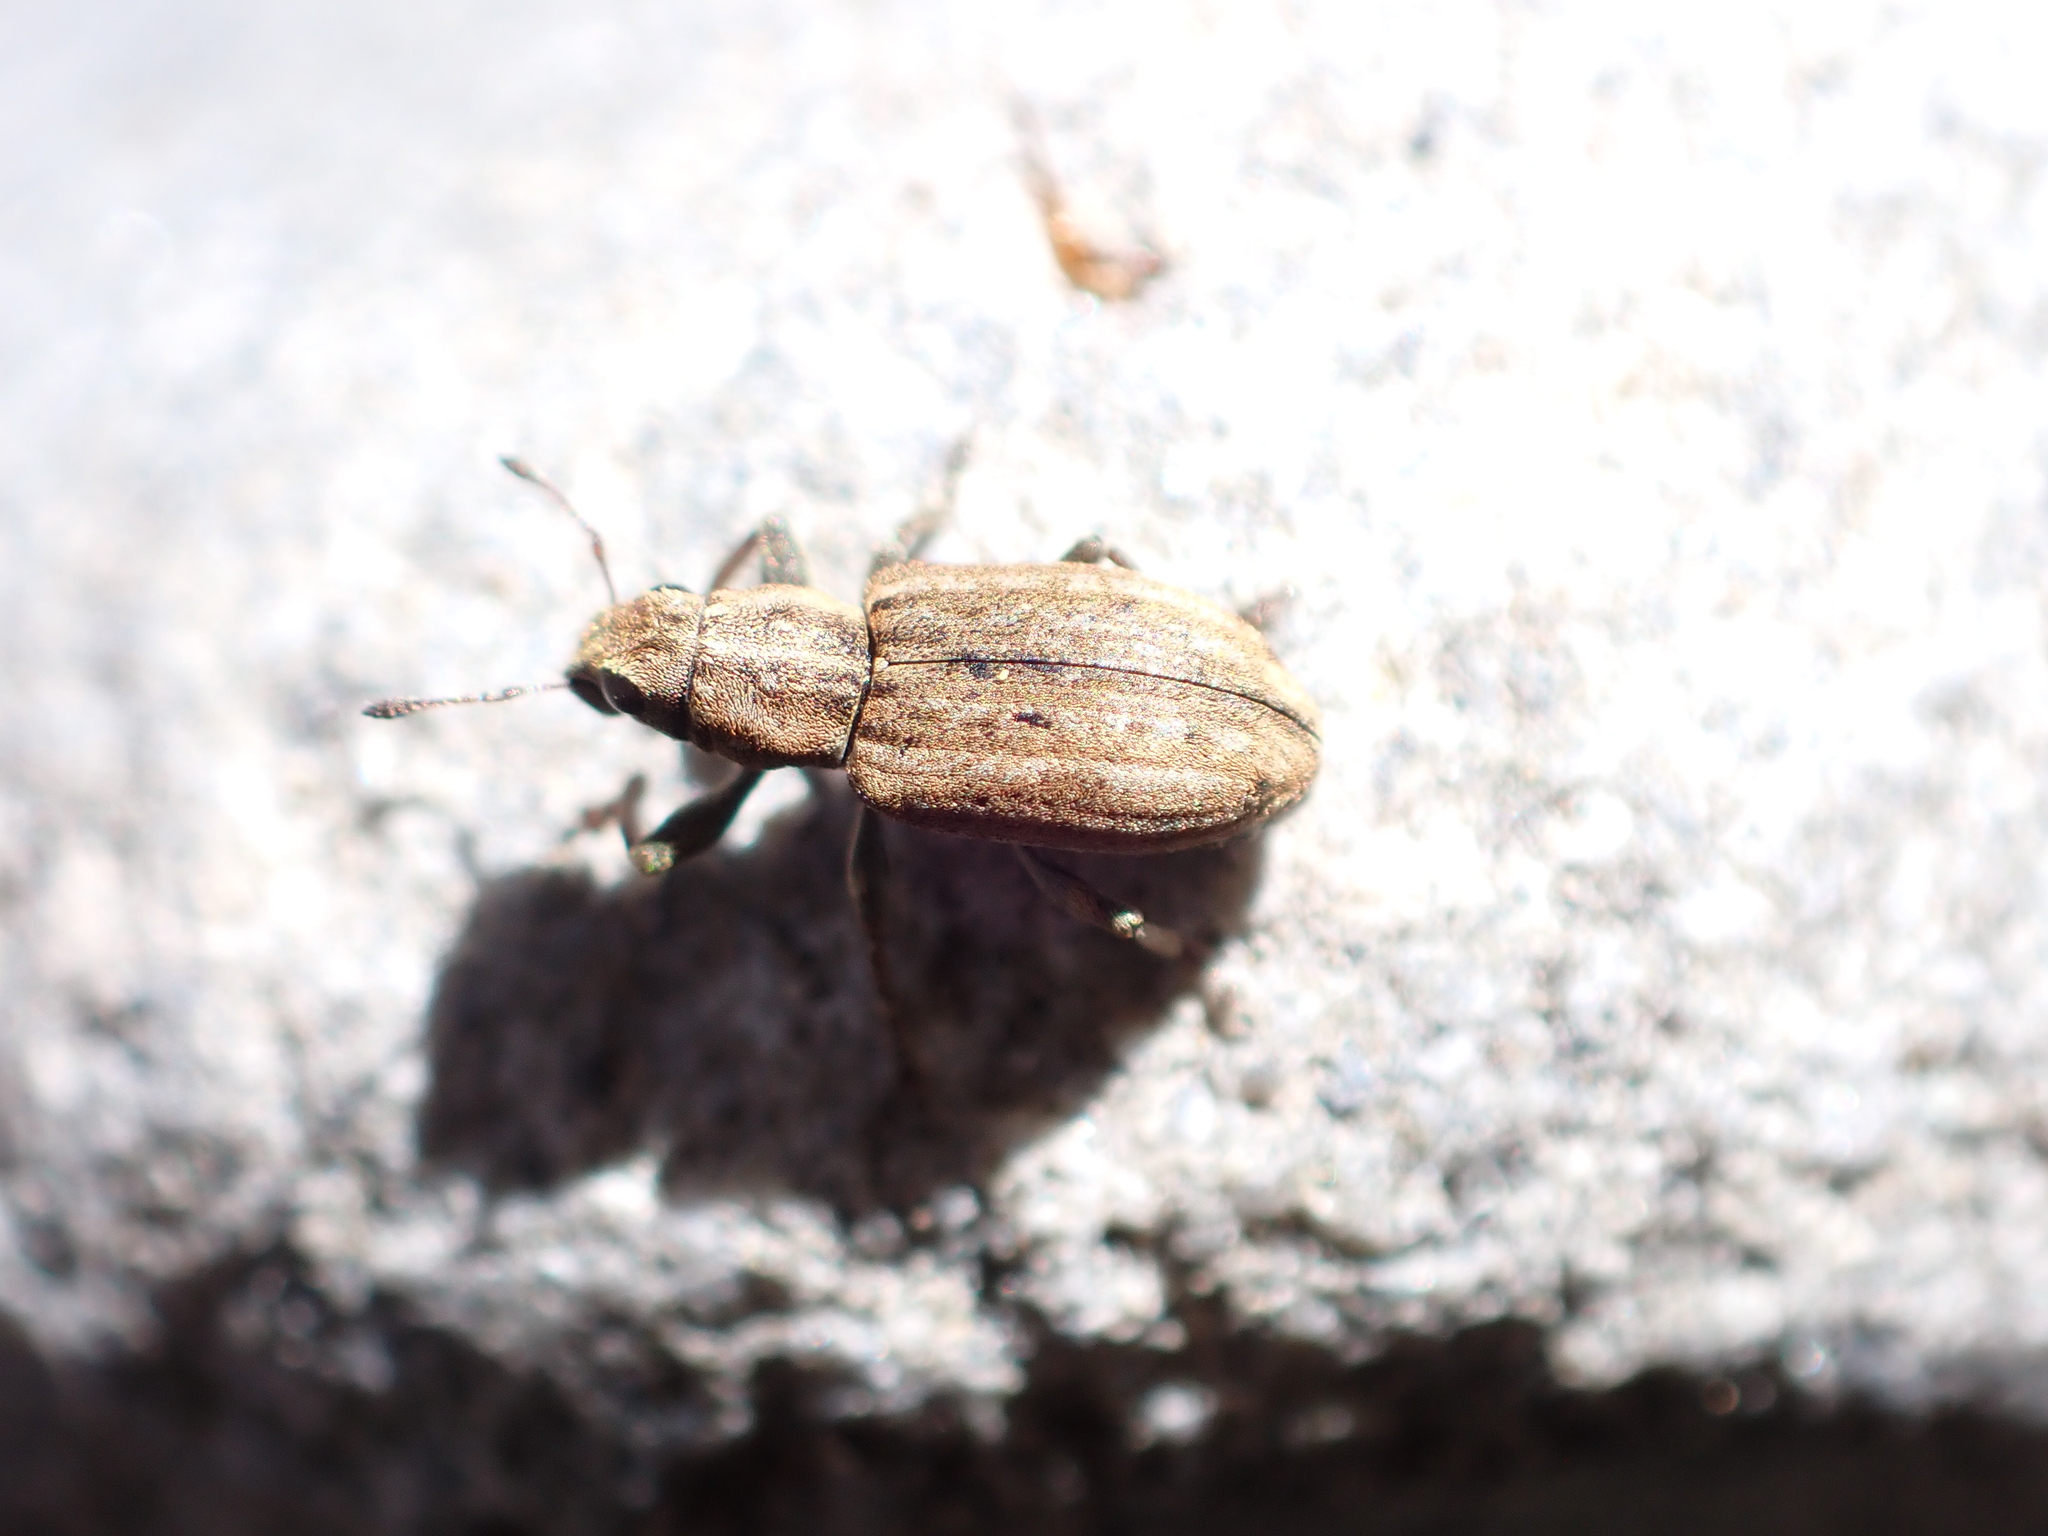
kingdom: Animalia
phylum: Arthropoda
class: Insecta
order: Coleoptera
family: Curculionidae
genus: Sitona
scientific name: Sitona obsoletus
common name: Weevil
